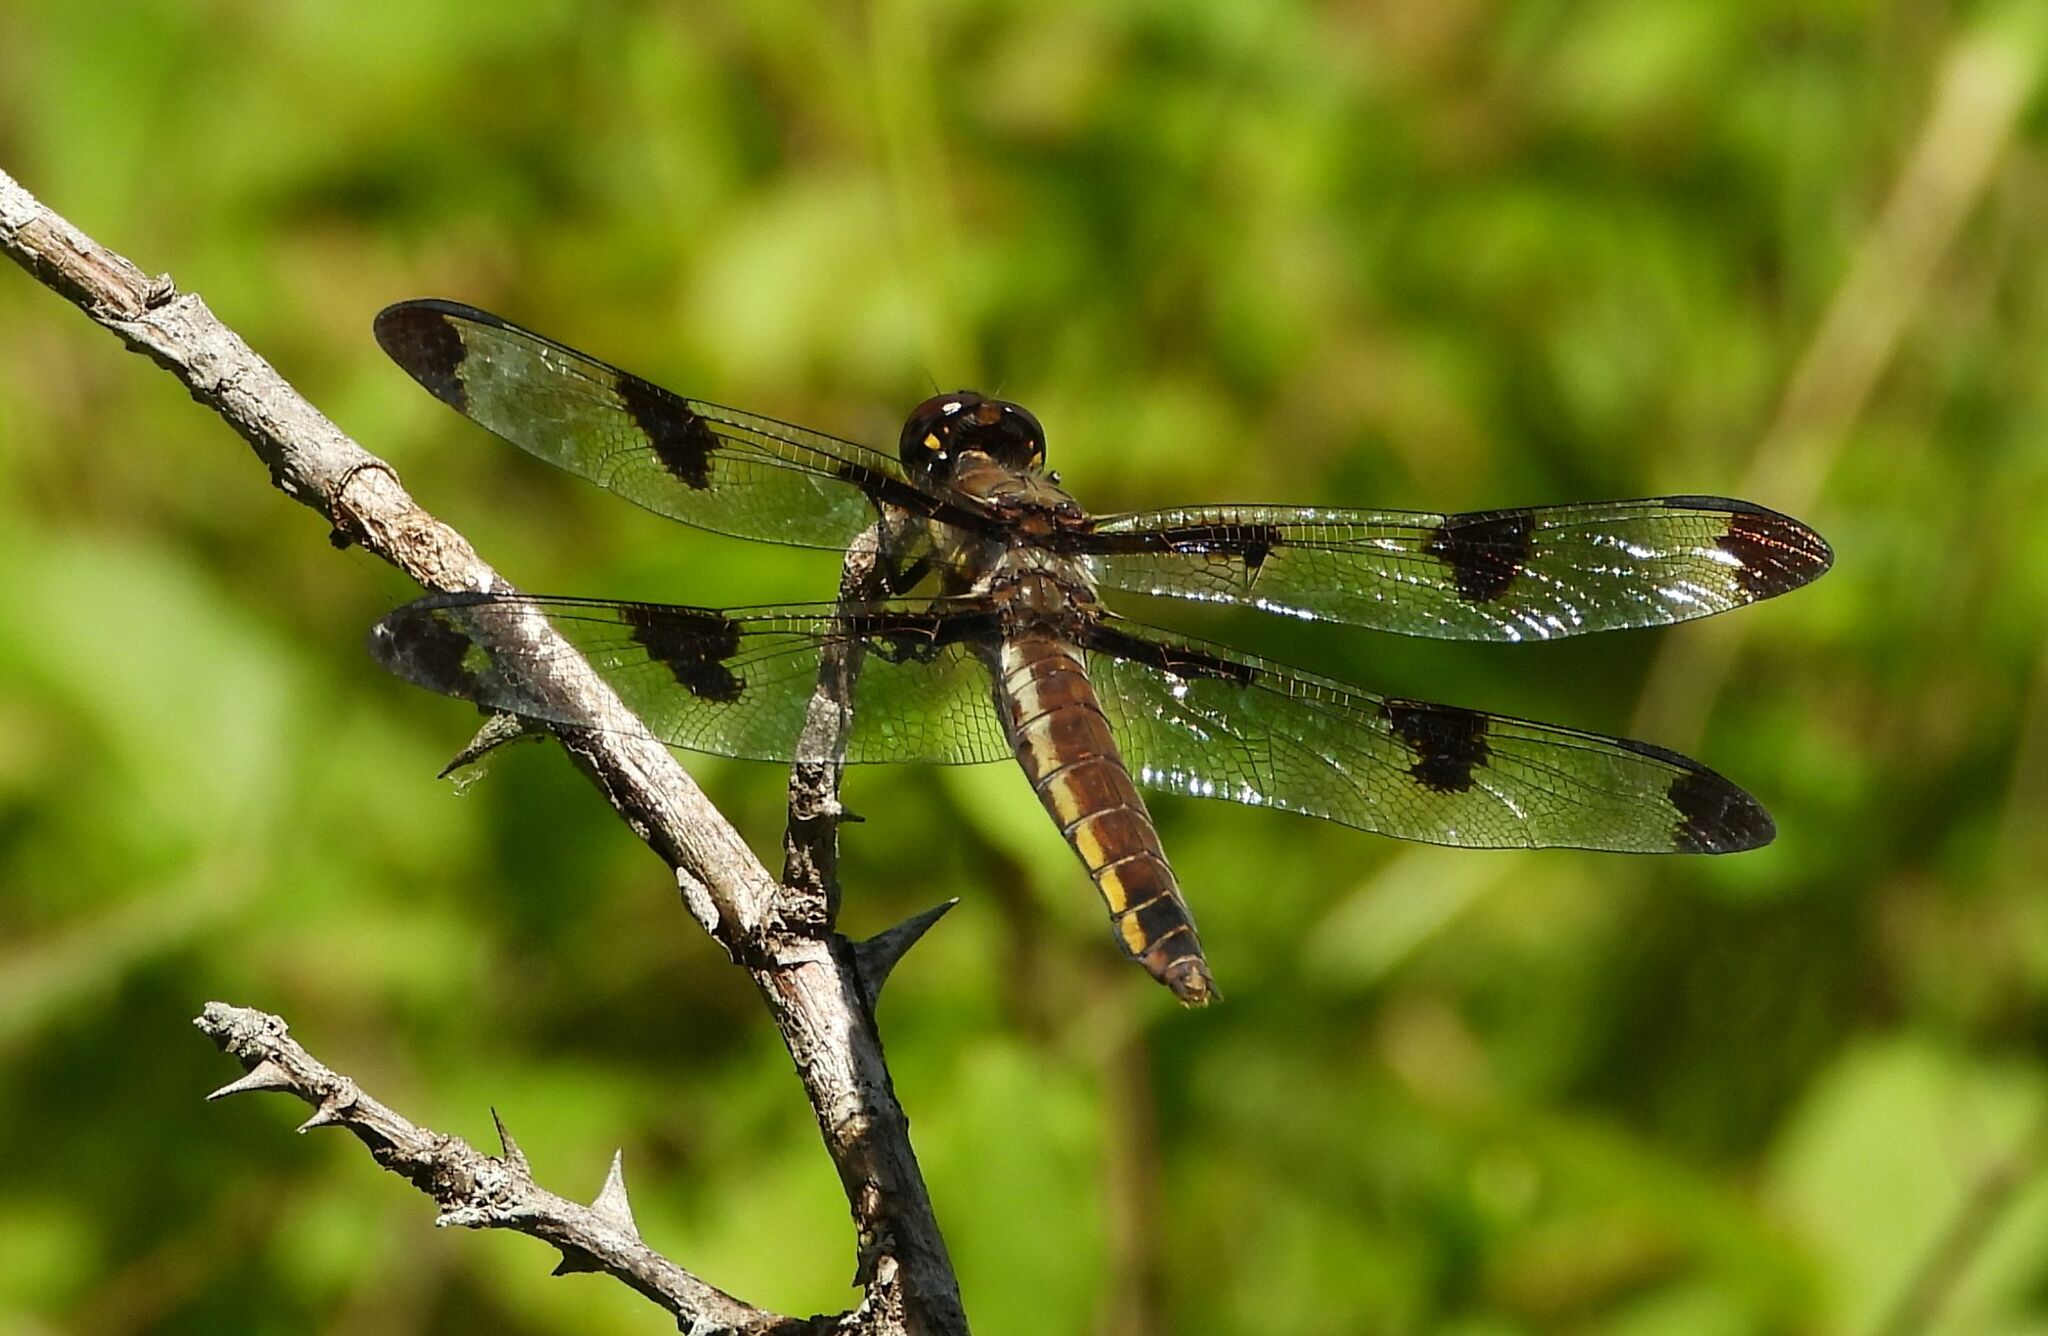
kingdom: Animalia
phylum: Arthropoda
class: Insecta
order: Odonata
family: Libellulidae
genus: Libellula
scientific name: Libellula pulchella
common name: Twelve-spotted skimmer
